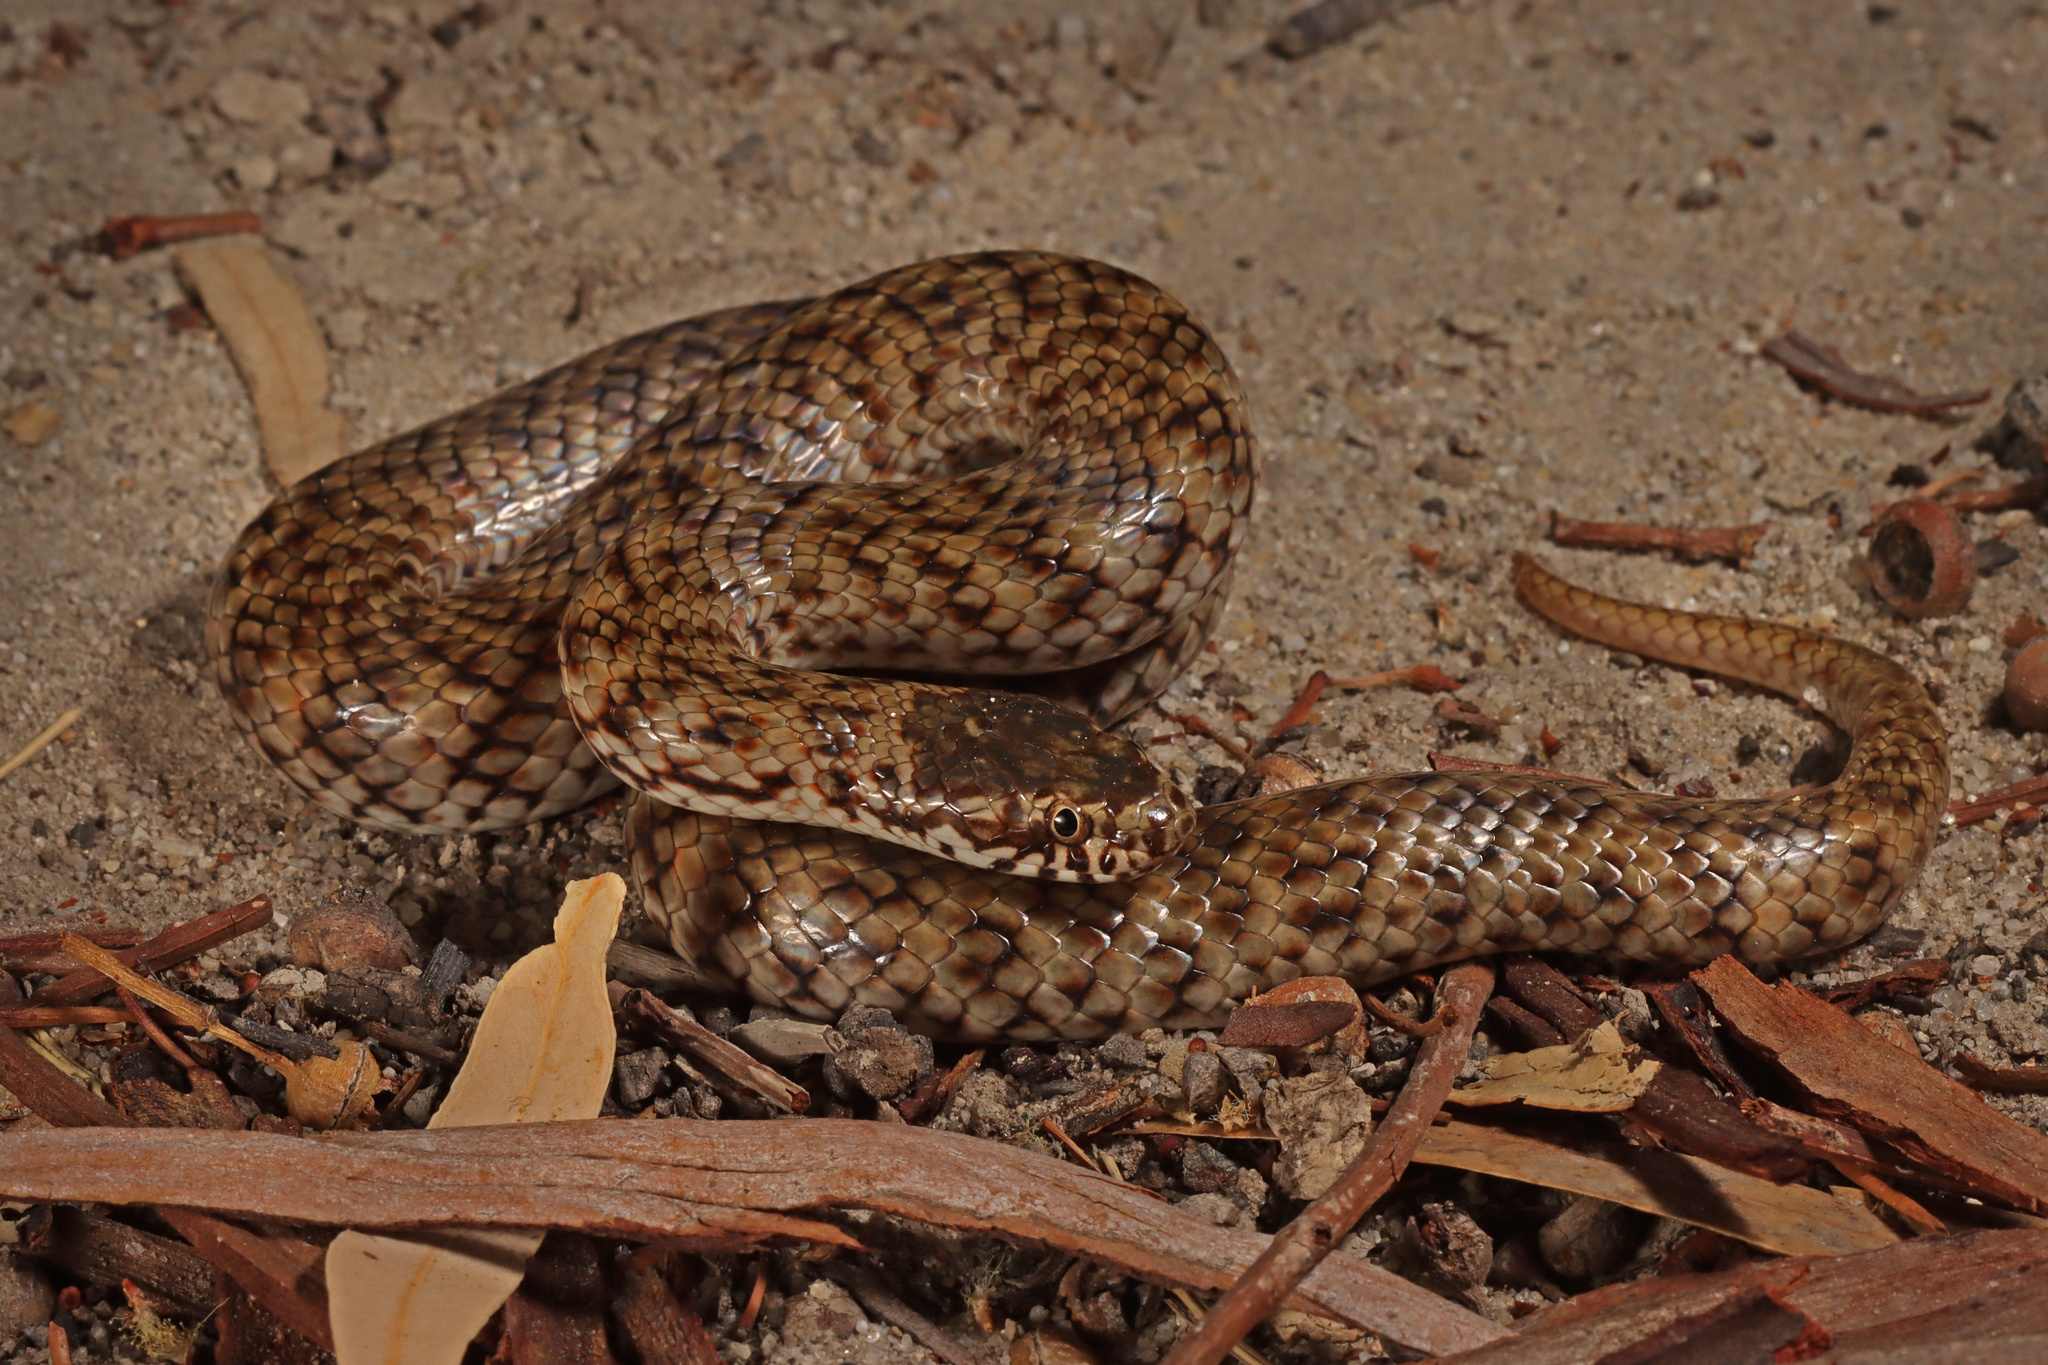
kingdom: Animalia
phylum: Chordata
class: Squamata
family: Elapidae
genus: Denisonia
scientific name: Denisonia devisi
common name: De vis banded snake
